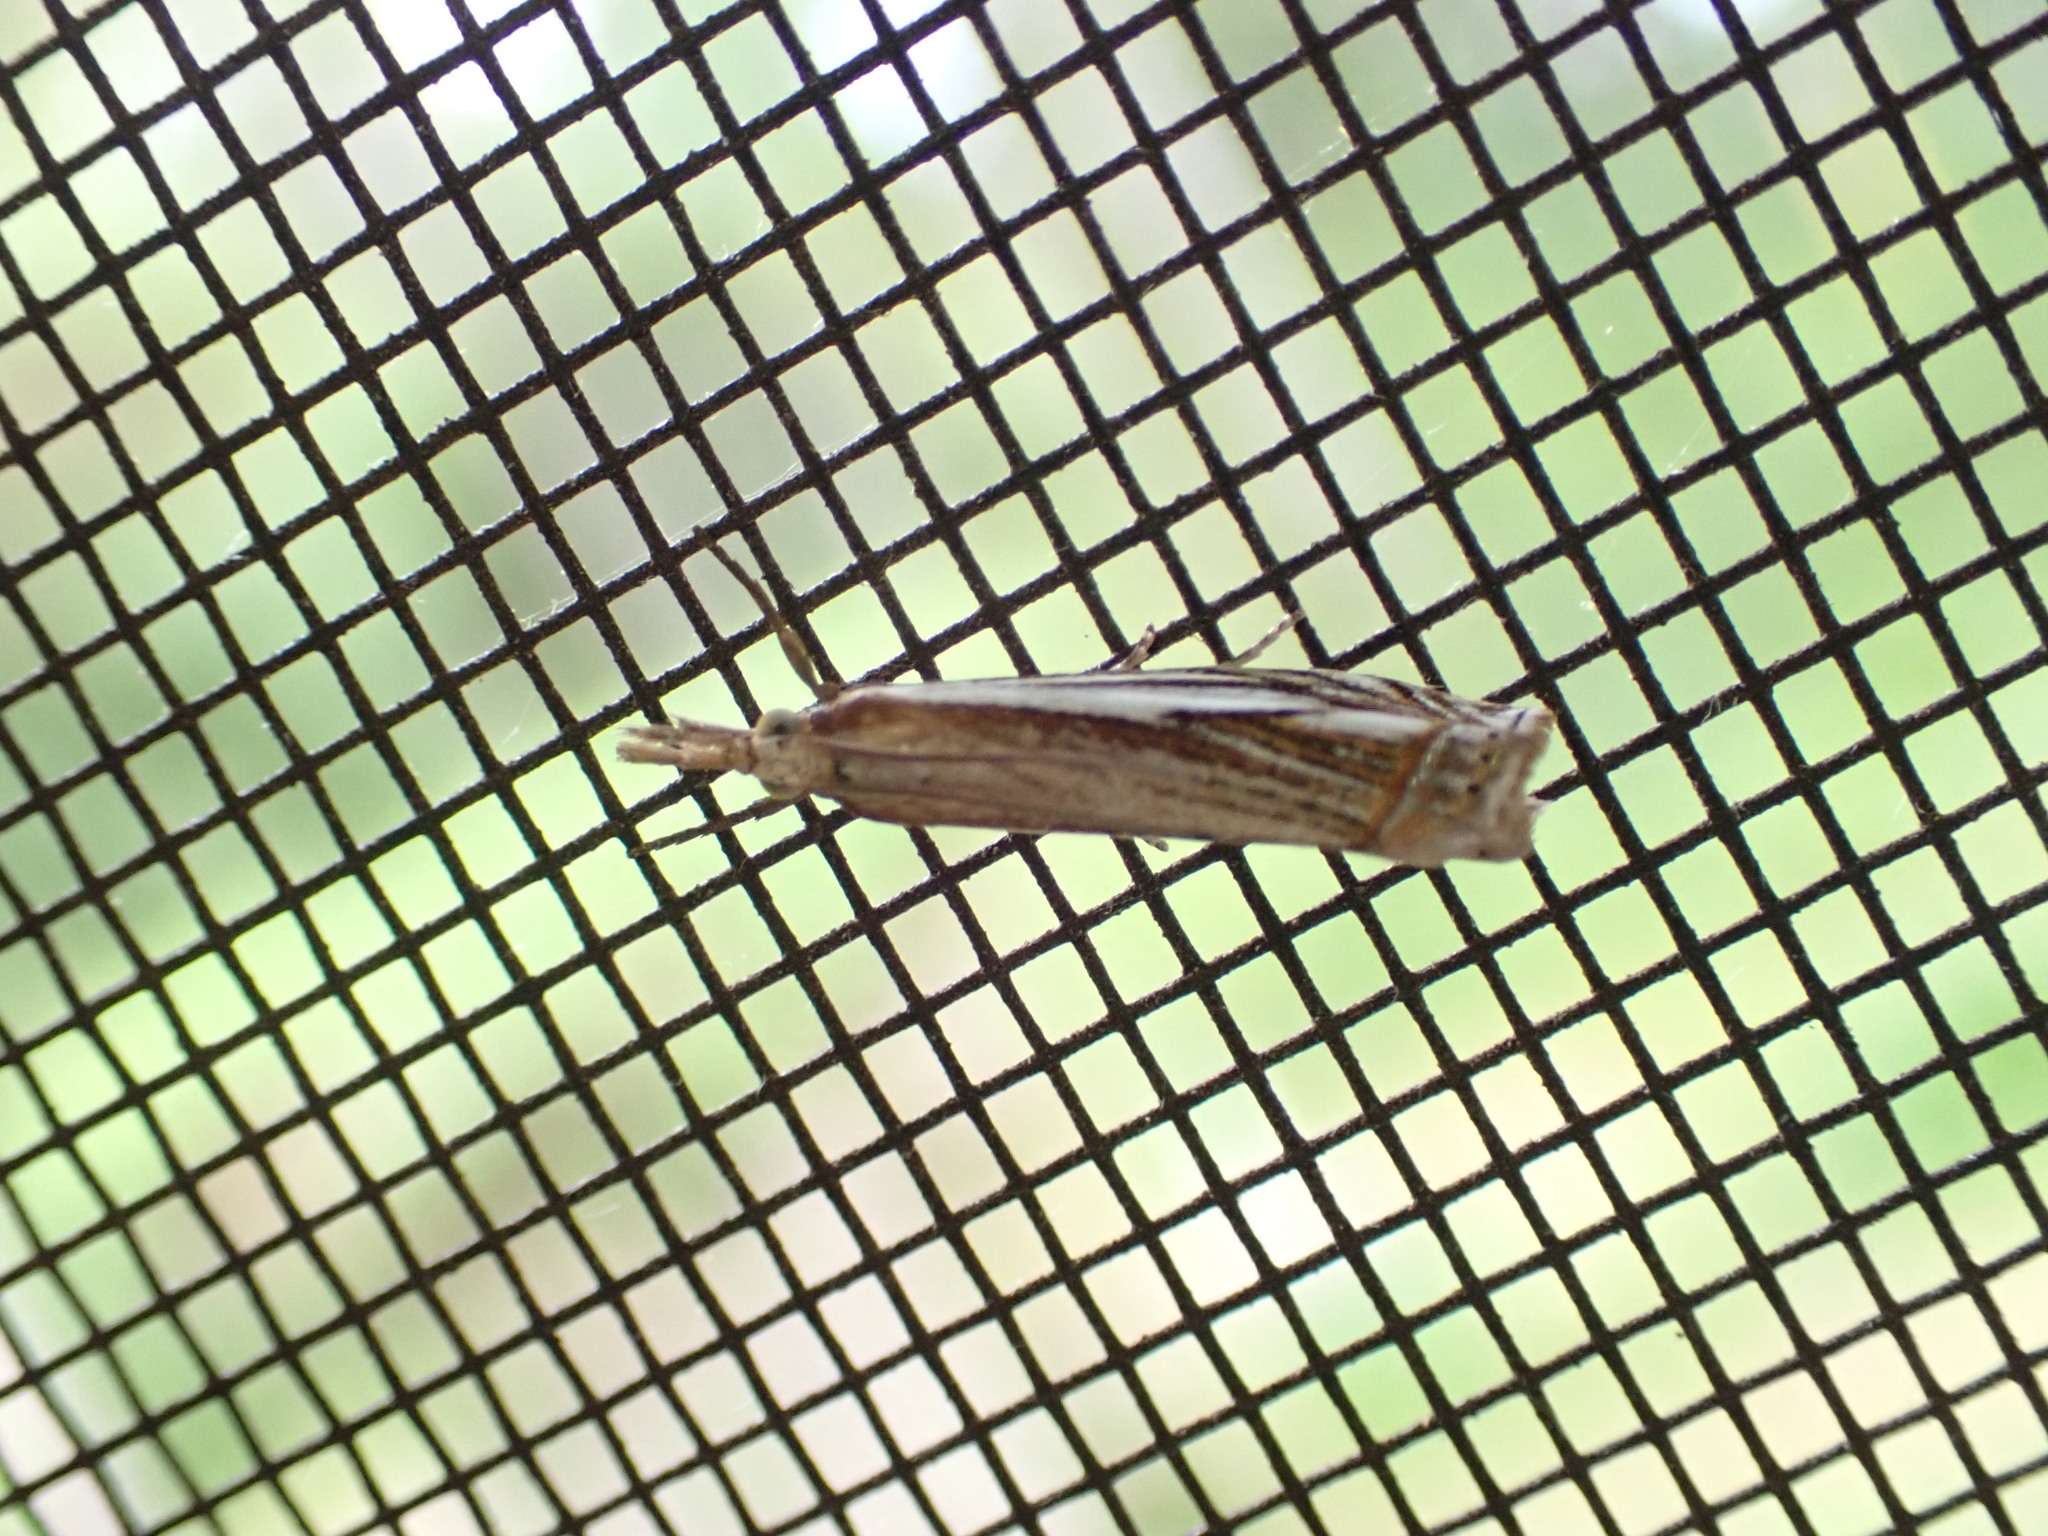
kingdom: Animalia
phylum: Arthropoda
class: Insecta
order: Lepidoptera
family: Crambidae
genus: Crambus
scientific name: Crambus saltuellus
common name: Pasture grass-veneer
